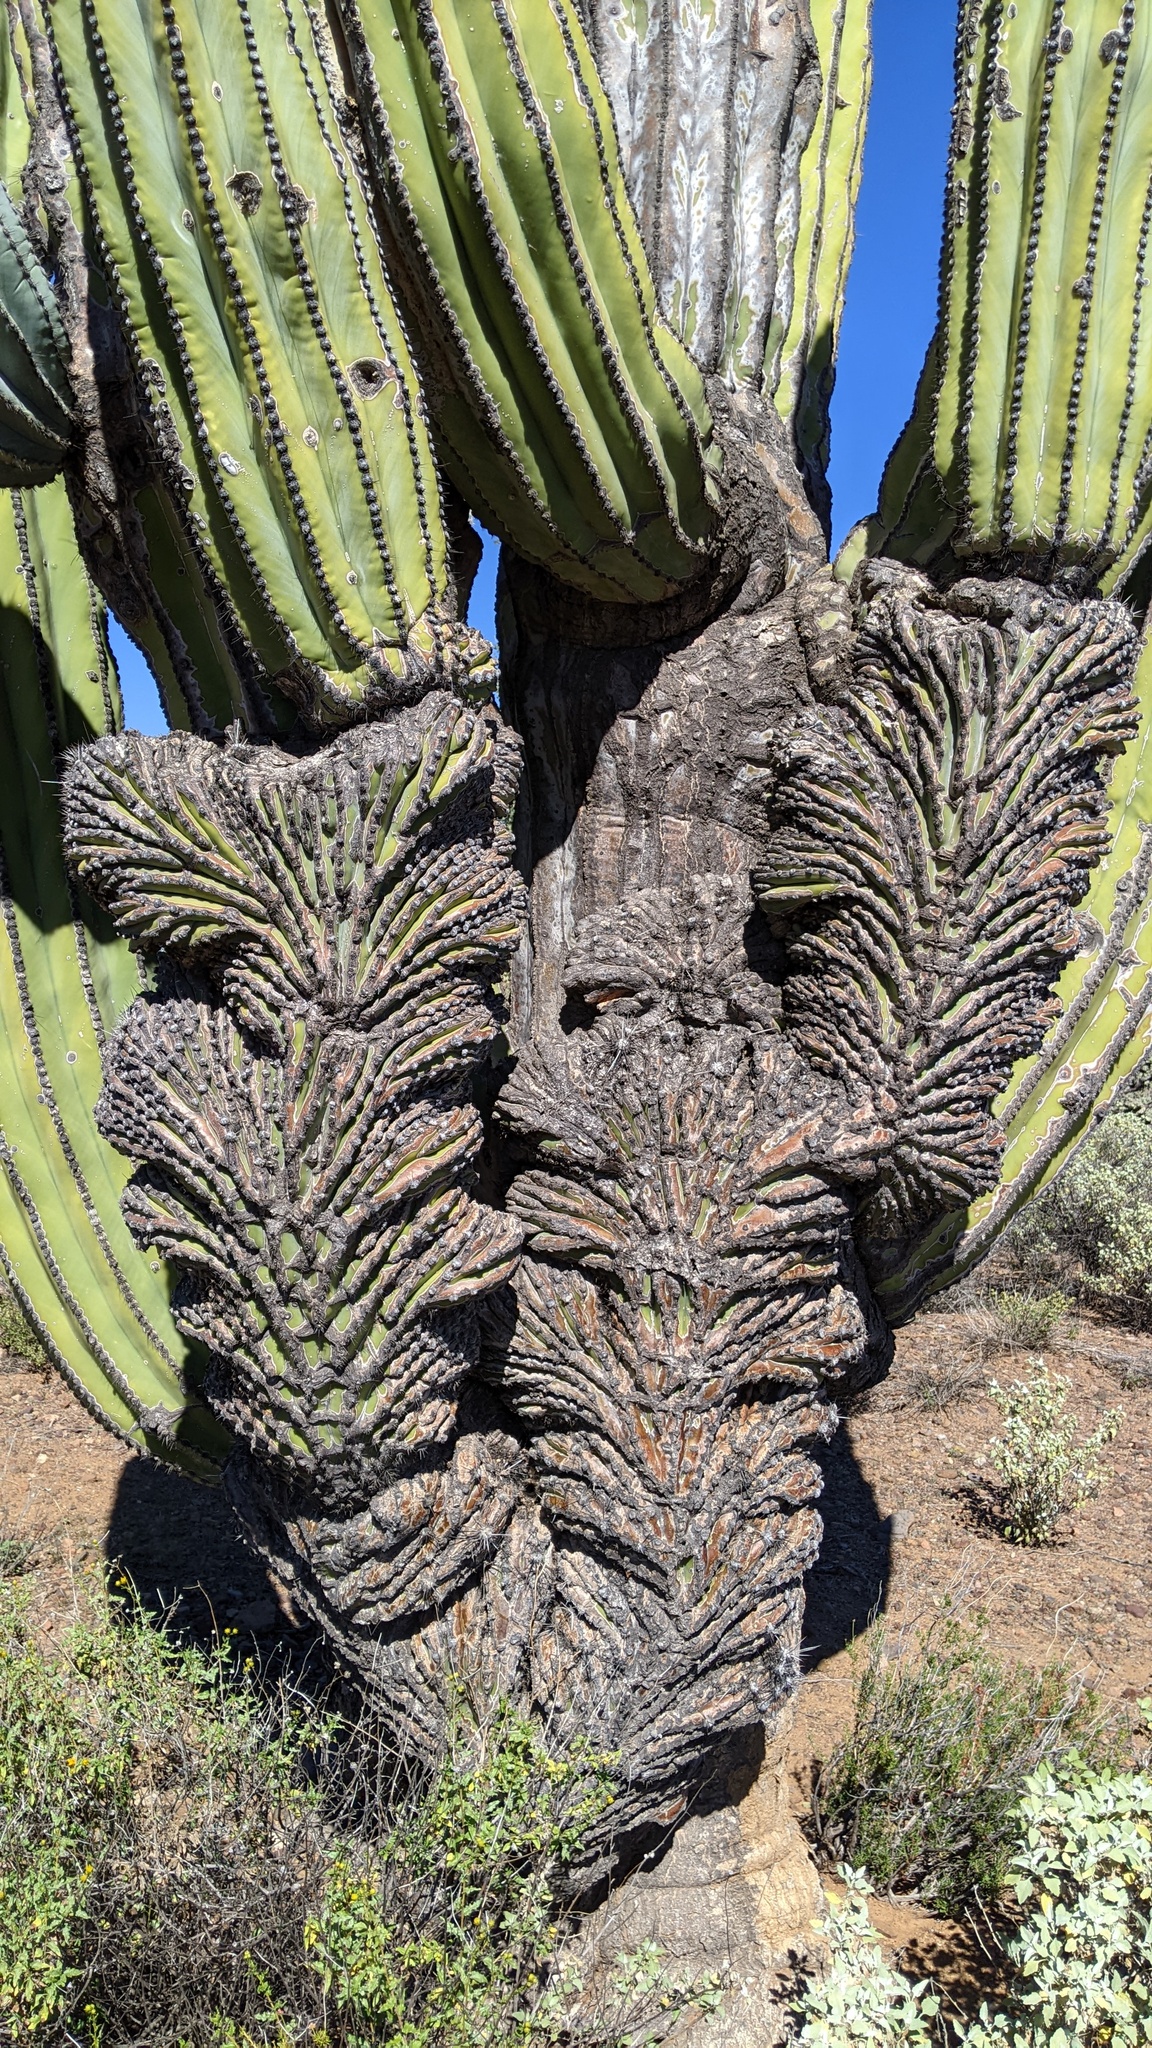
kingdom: Plantae
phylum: Tracheophyta
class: Magnoliopsida
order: Caryophyllales
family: Cactaceae
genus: Pachycereus
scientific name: Pachycereus pringlei
